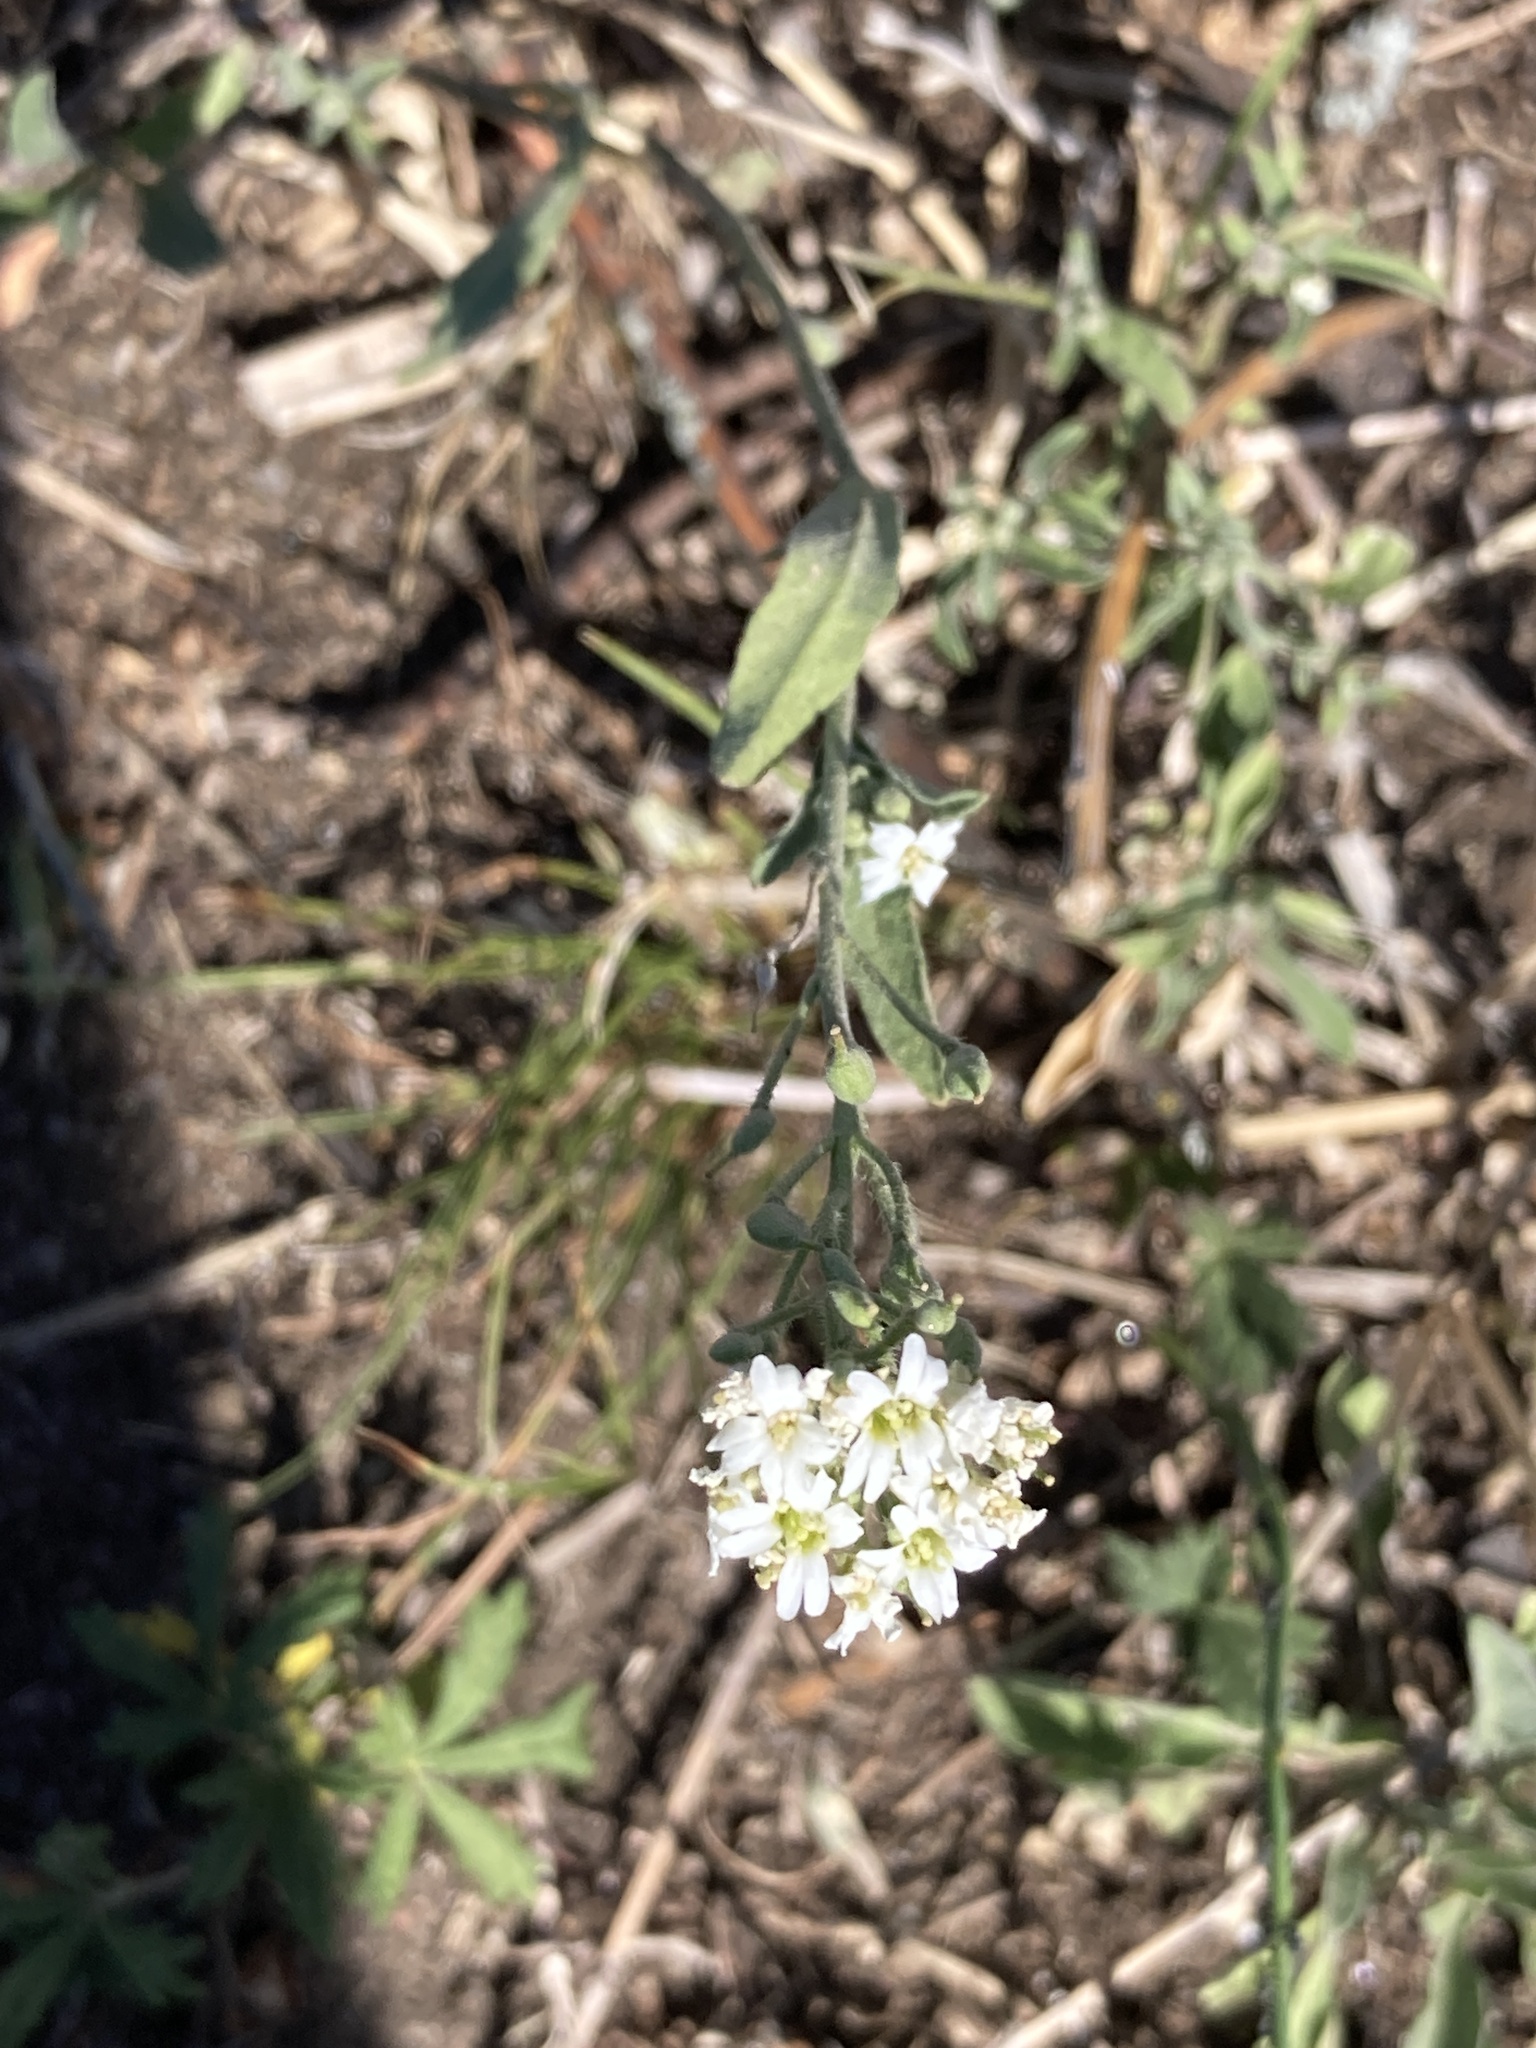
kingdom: Plantae
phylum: Tracheophyta
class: Magnoliopsida
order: Brassicales
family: Brassicaceae
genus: Berteroa
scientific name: Berteroa incana
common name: Hoary alison
